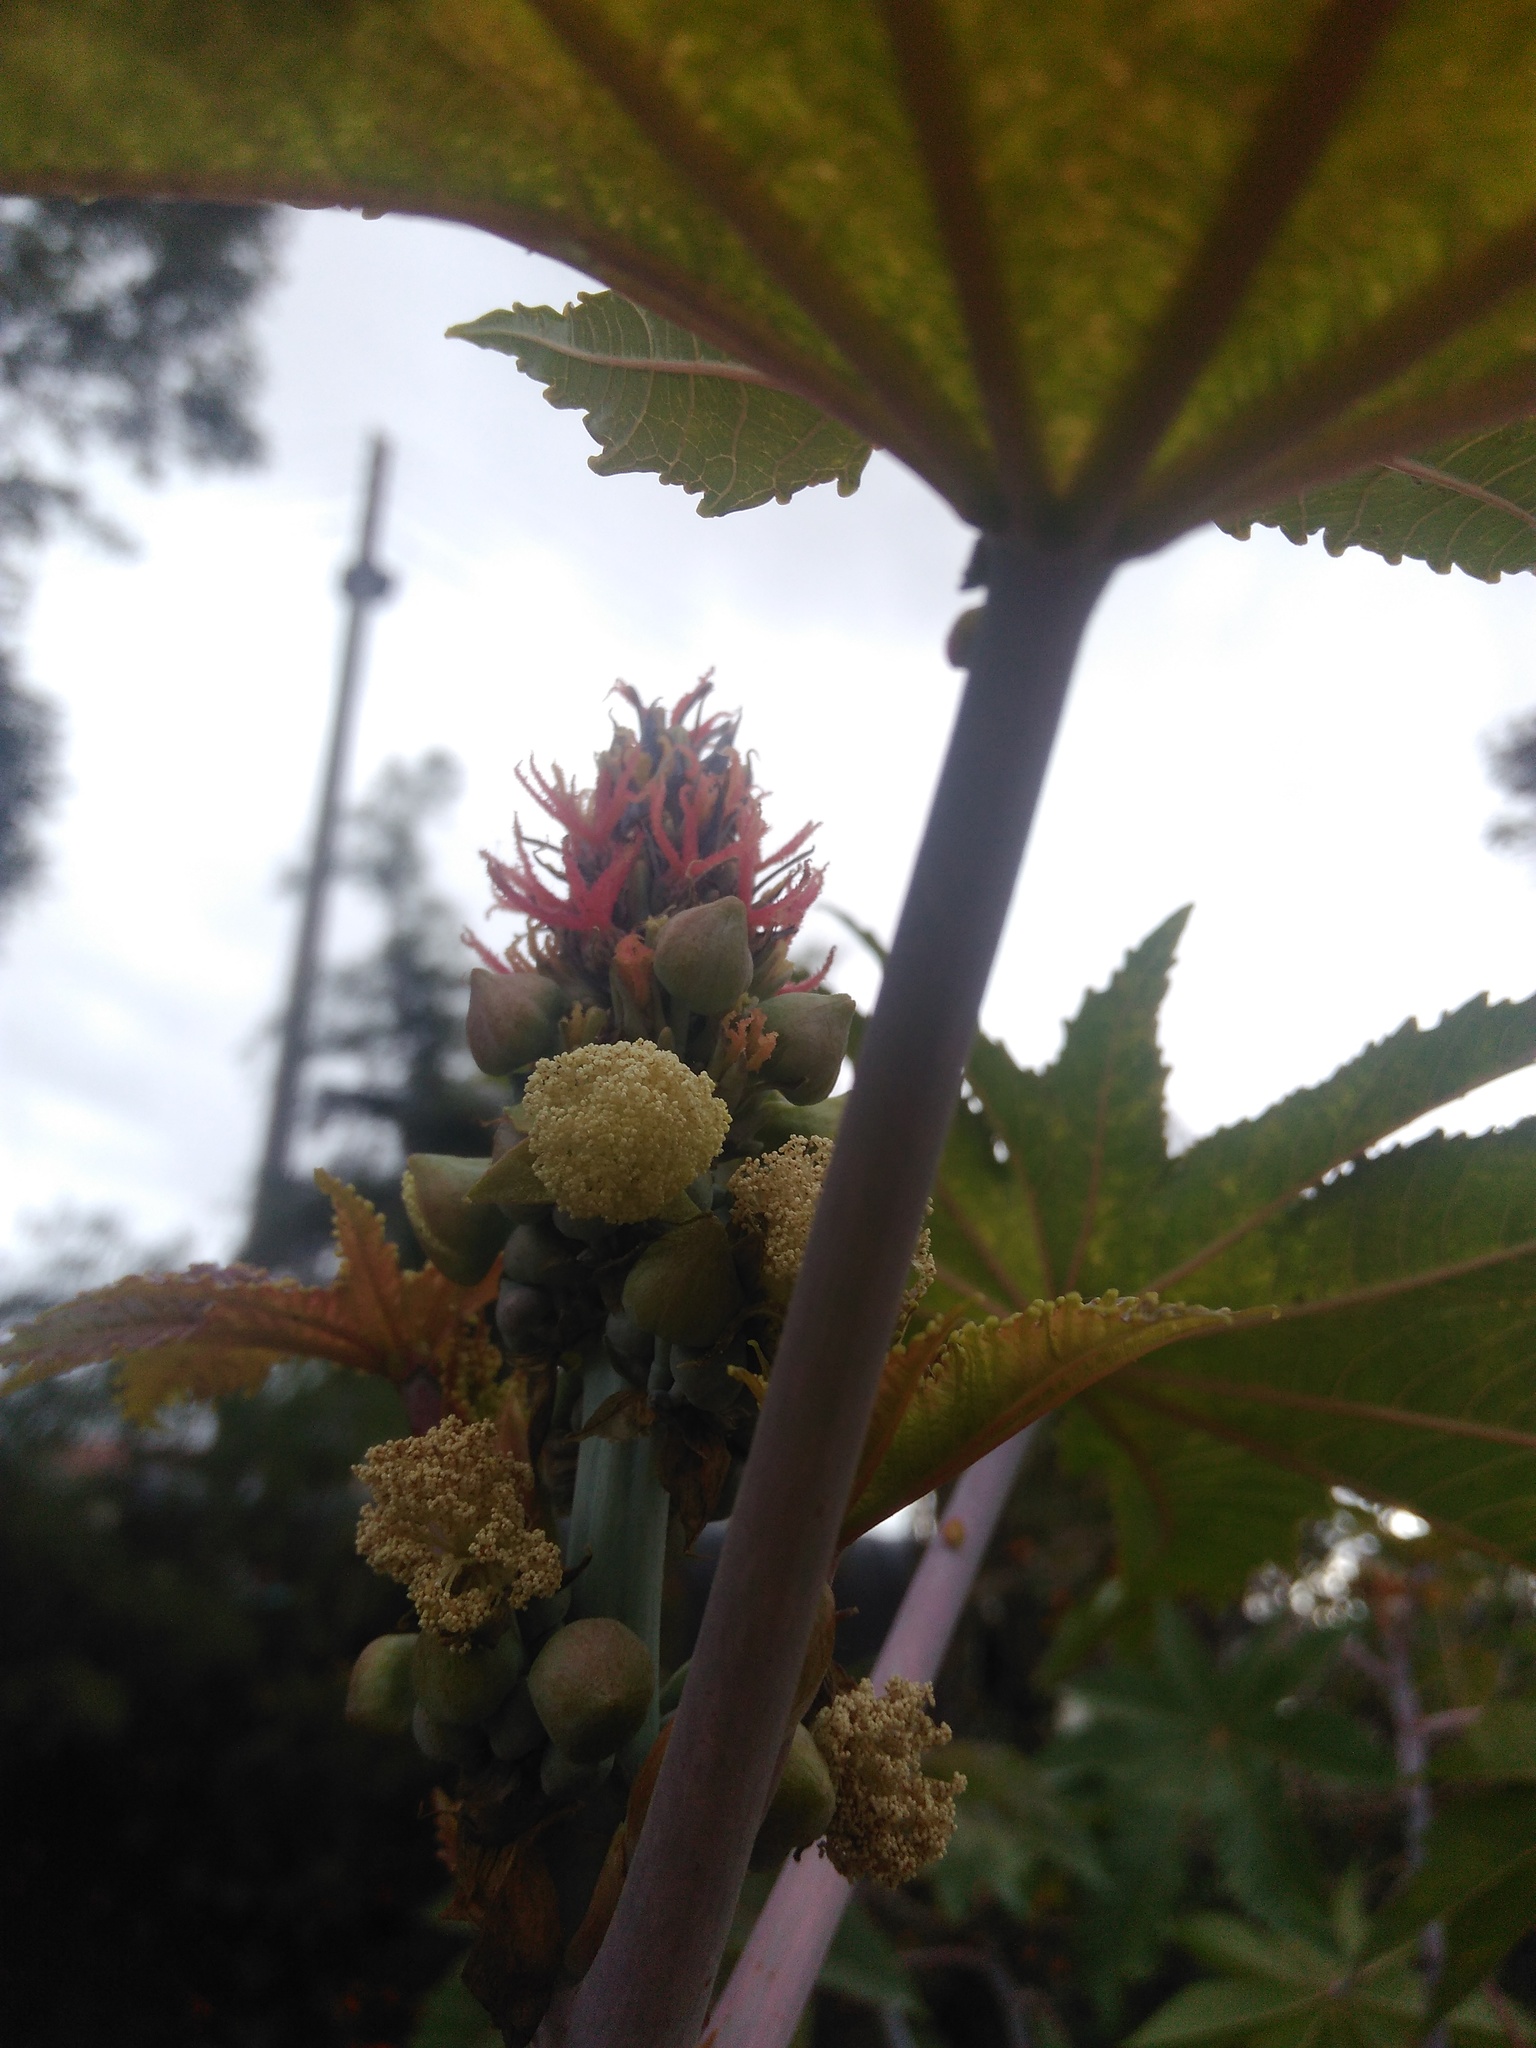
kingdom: Plantae
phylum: Tracheophyta
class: Magnoliopsida
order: Malpighiales
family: Euphorbiaceae
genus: Ricinus
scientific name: Ricinus communis
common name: Castor-oil-plant
